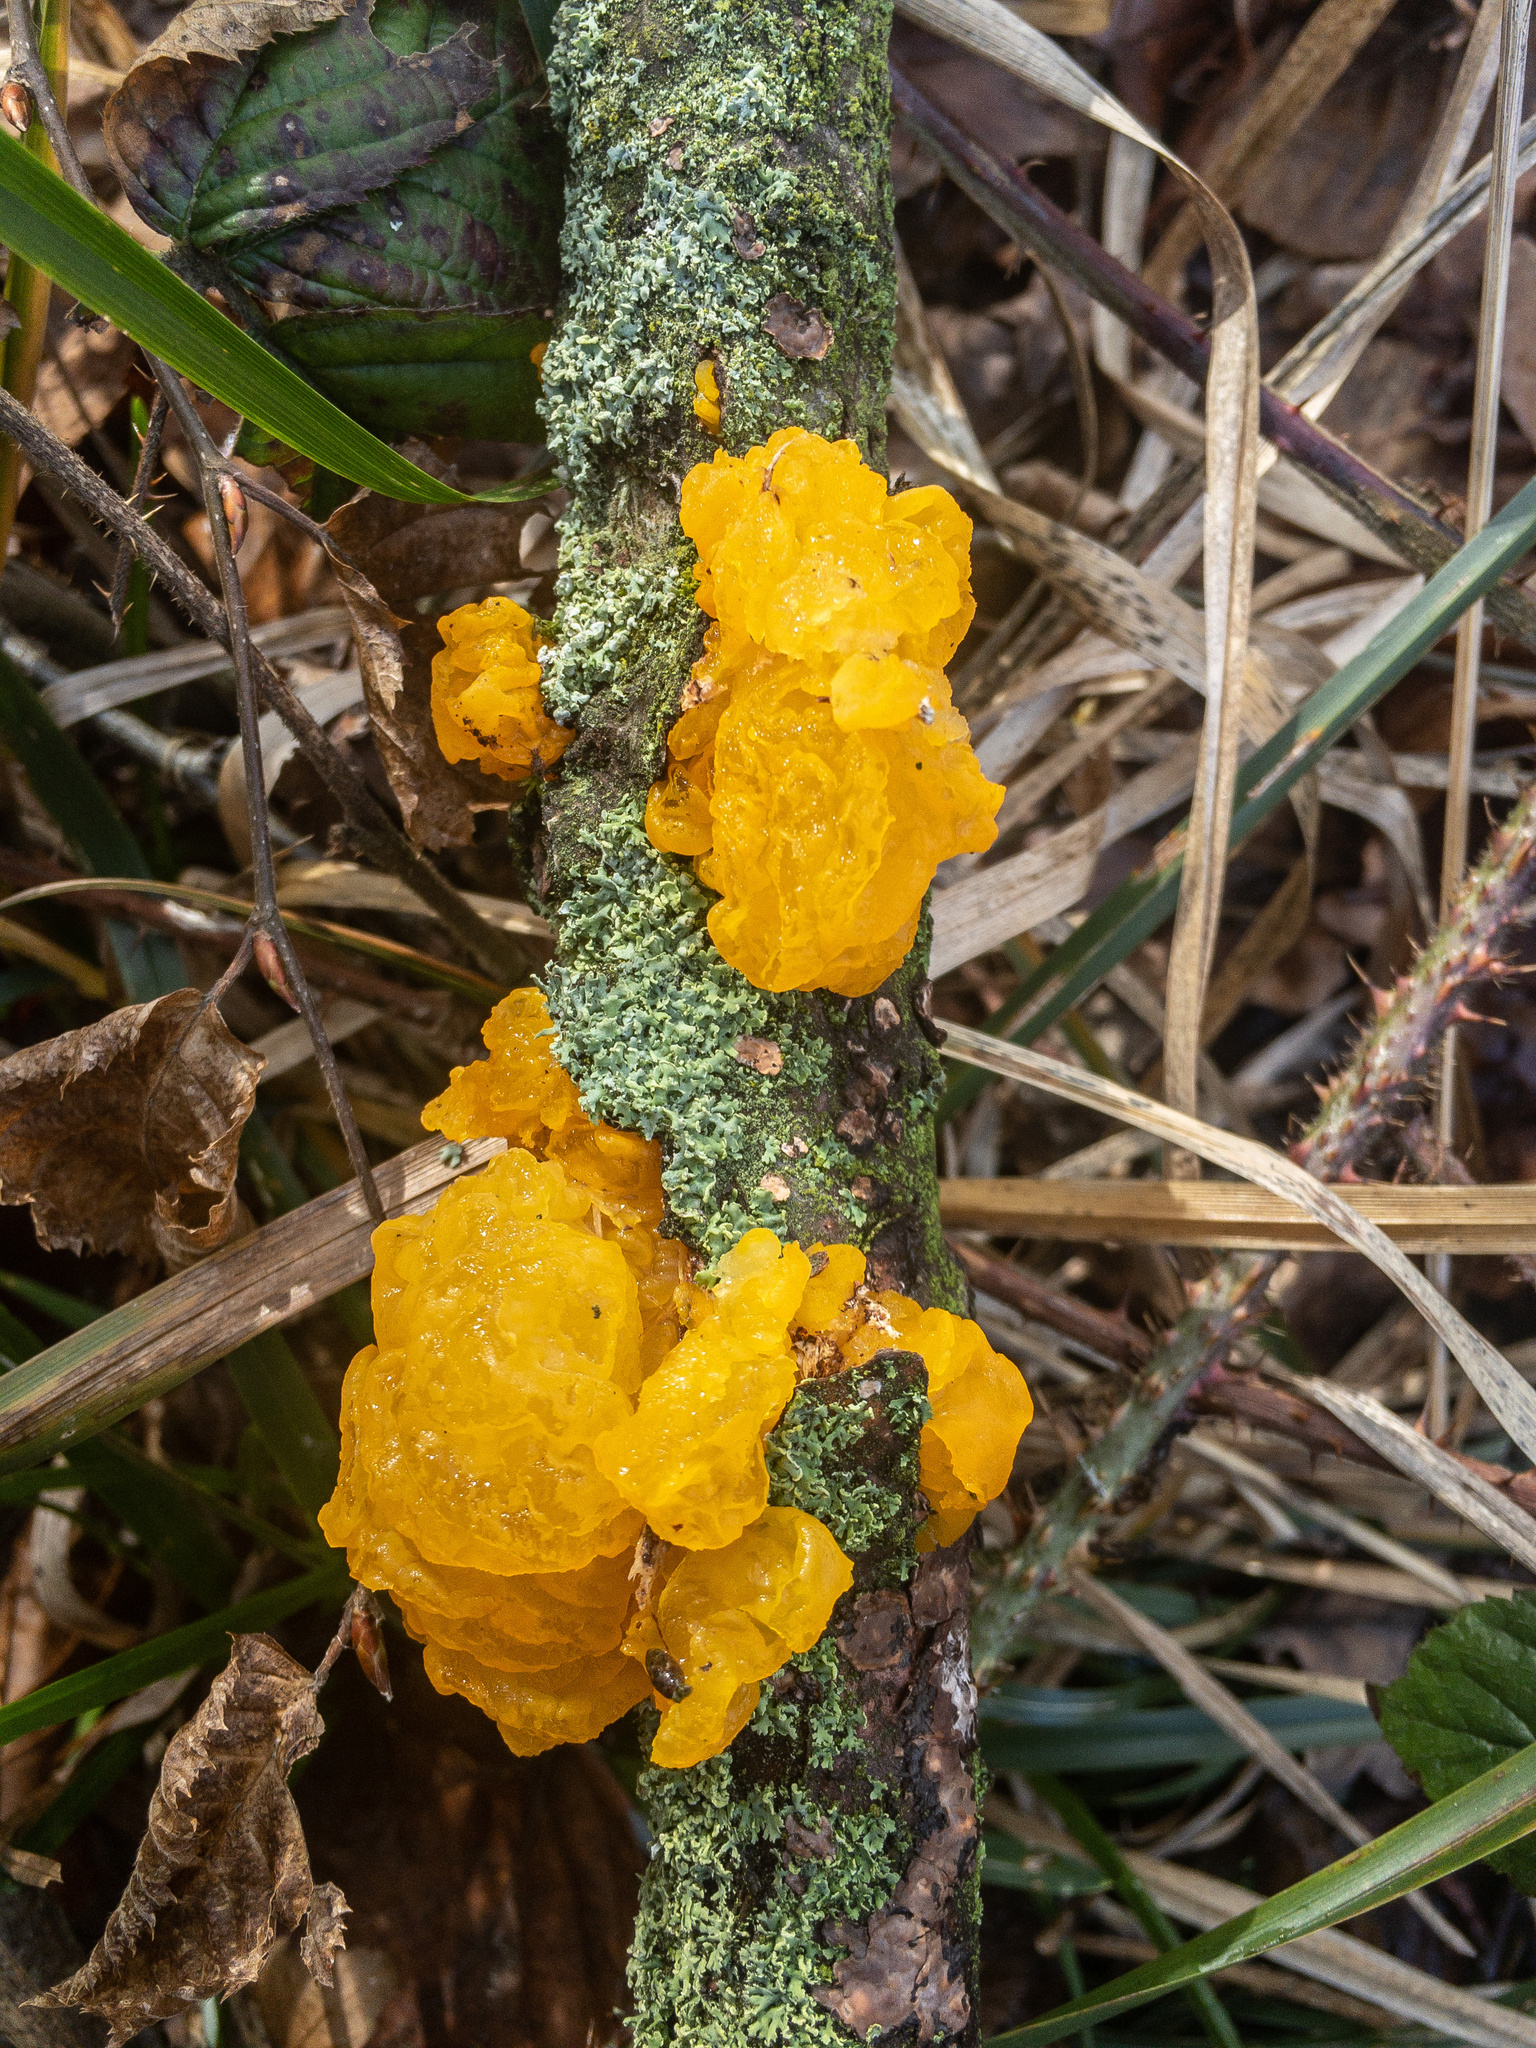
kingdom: Fungi
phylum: Basidiomycota
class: Tremellomycetes
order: Tremellales
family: Tremellaceae
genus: Tremella
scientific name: Tremella mesenterica
